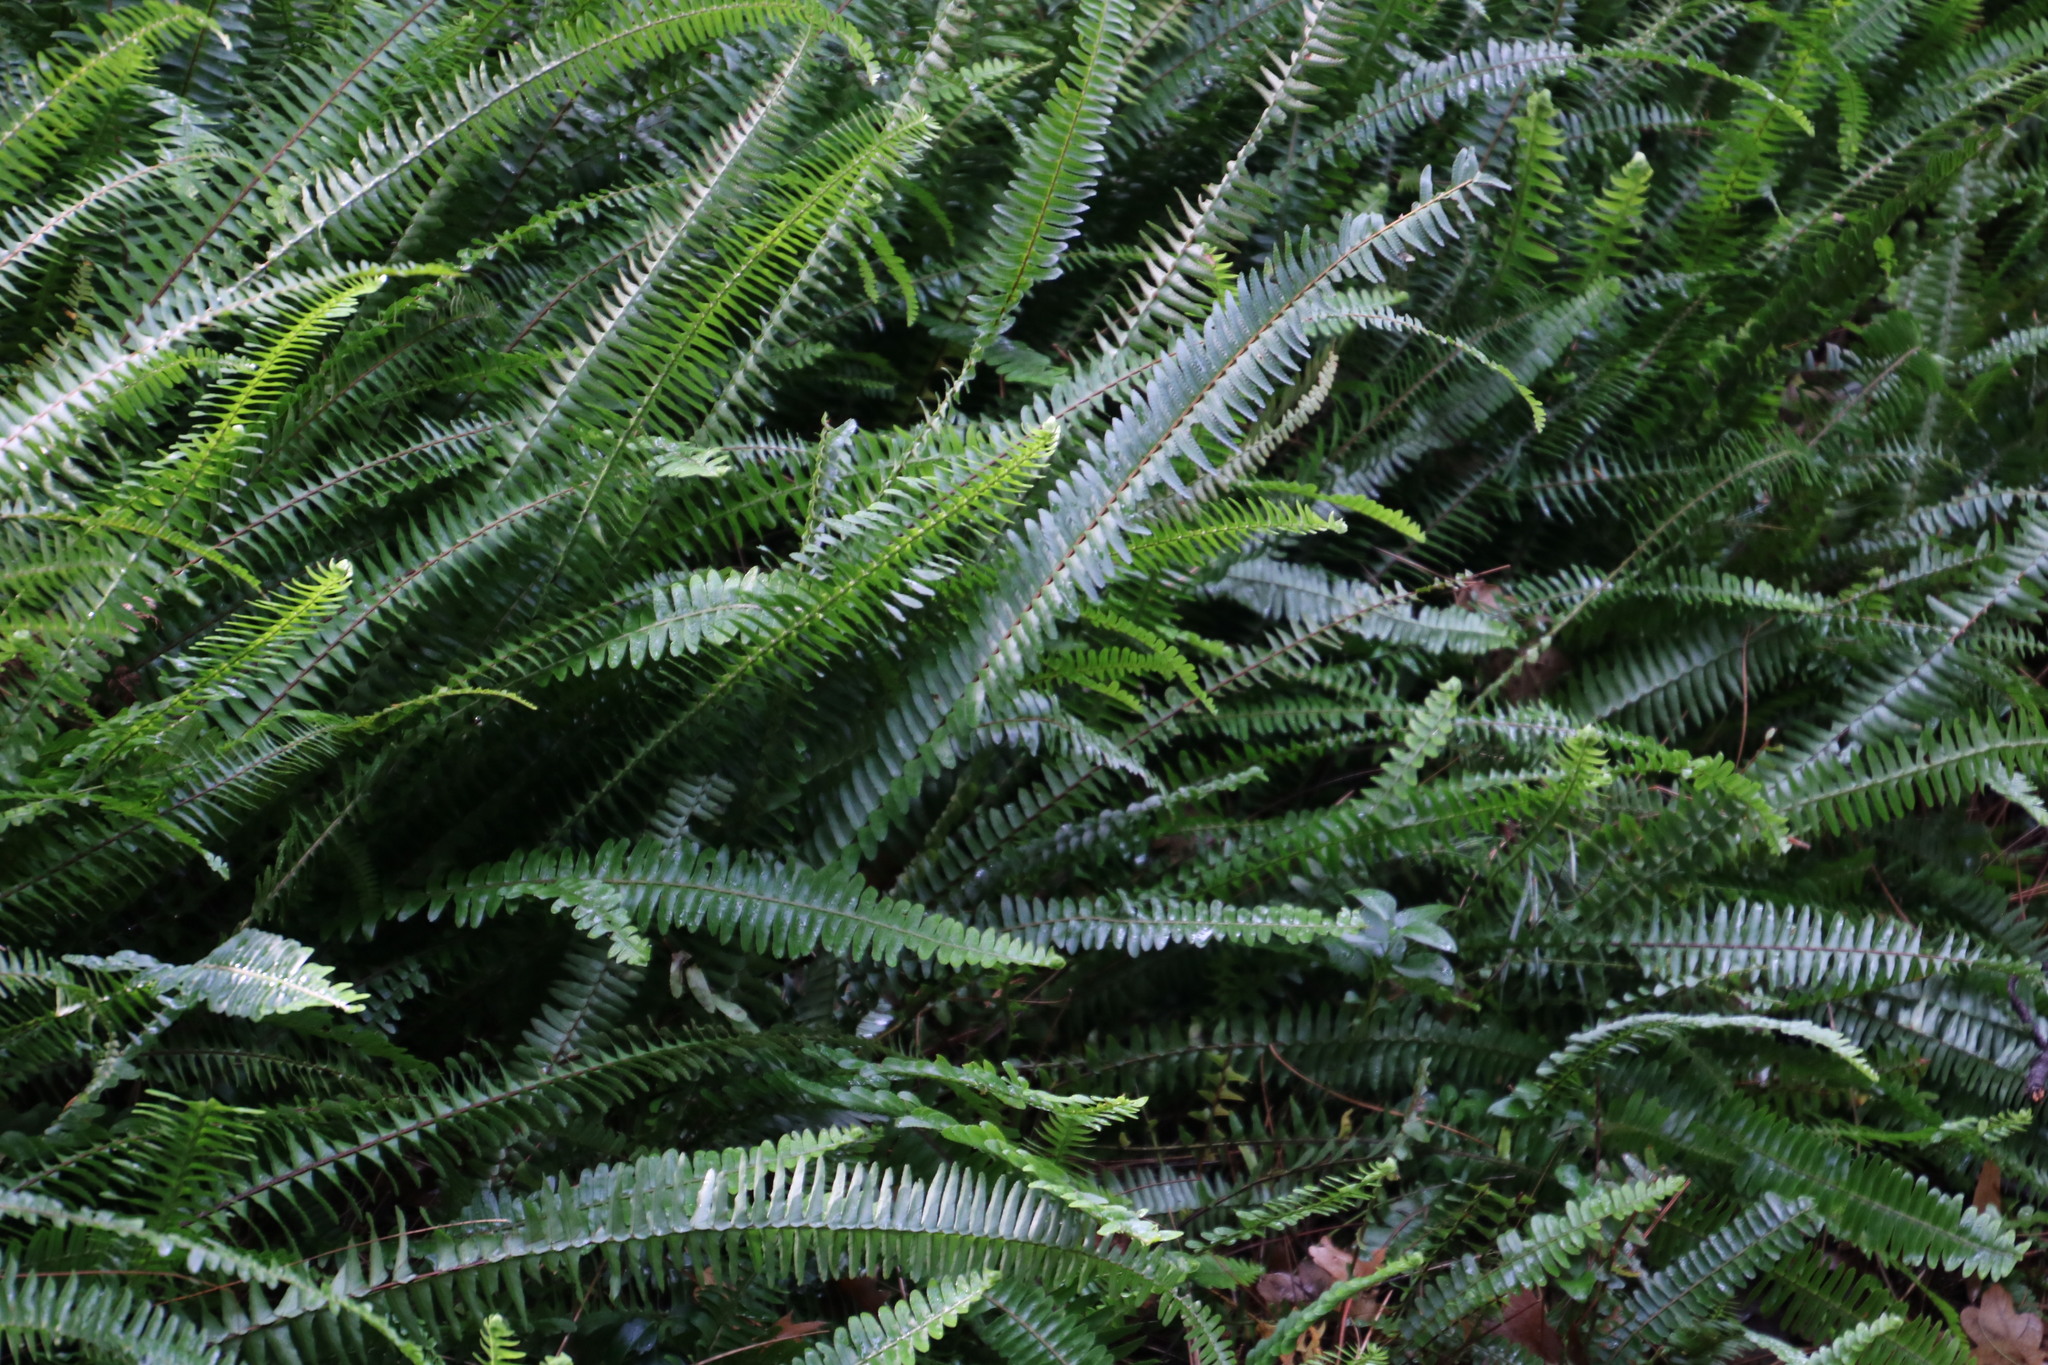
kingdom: Plantae
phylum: Tracheophyta
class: Polypodiopsida
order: Polypodiales
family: Nephrolepidaceae
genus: Nephrolepis
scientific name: Nephrolepis cordifolia
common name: Narrow swordfern
